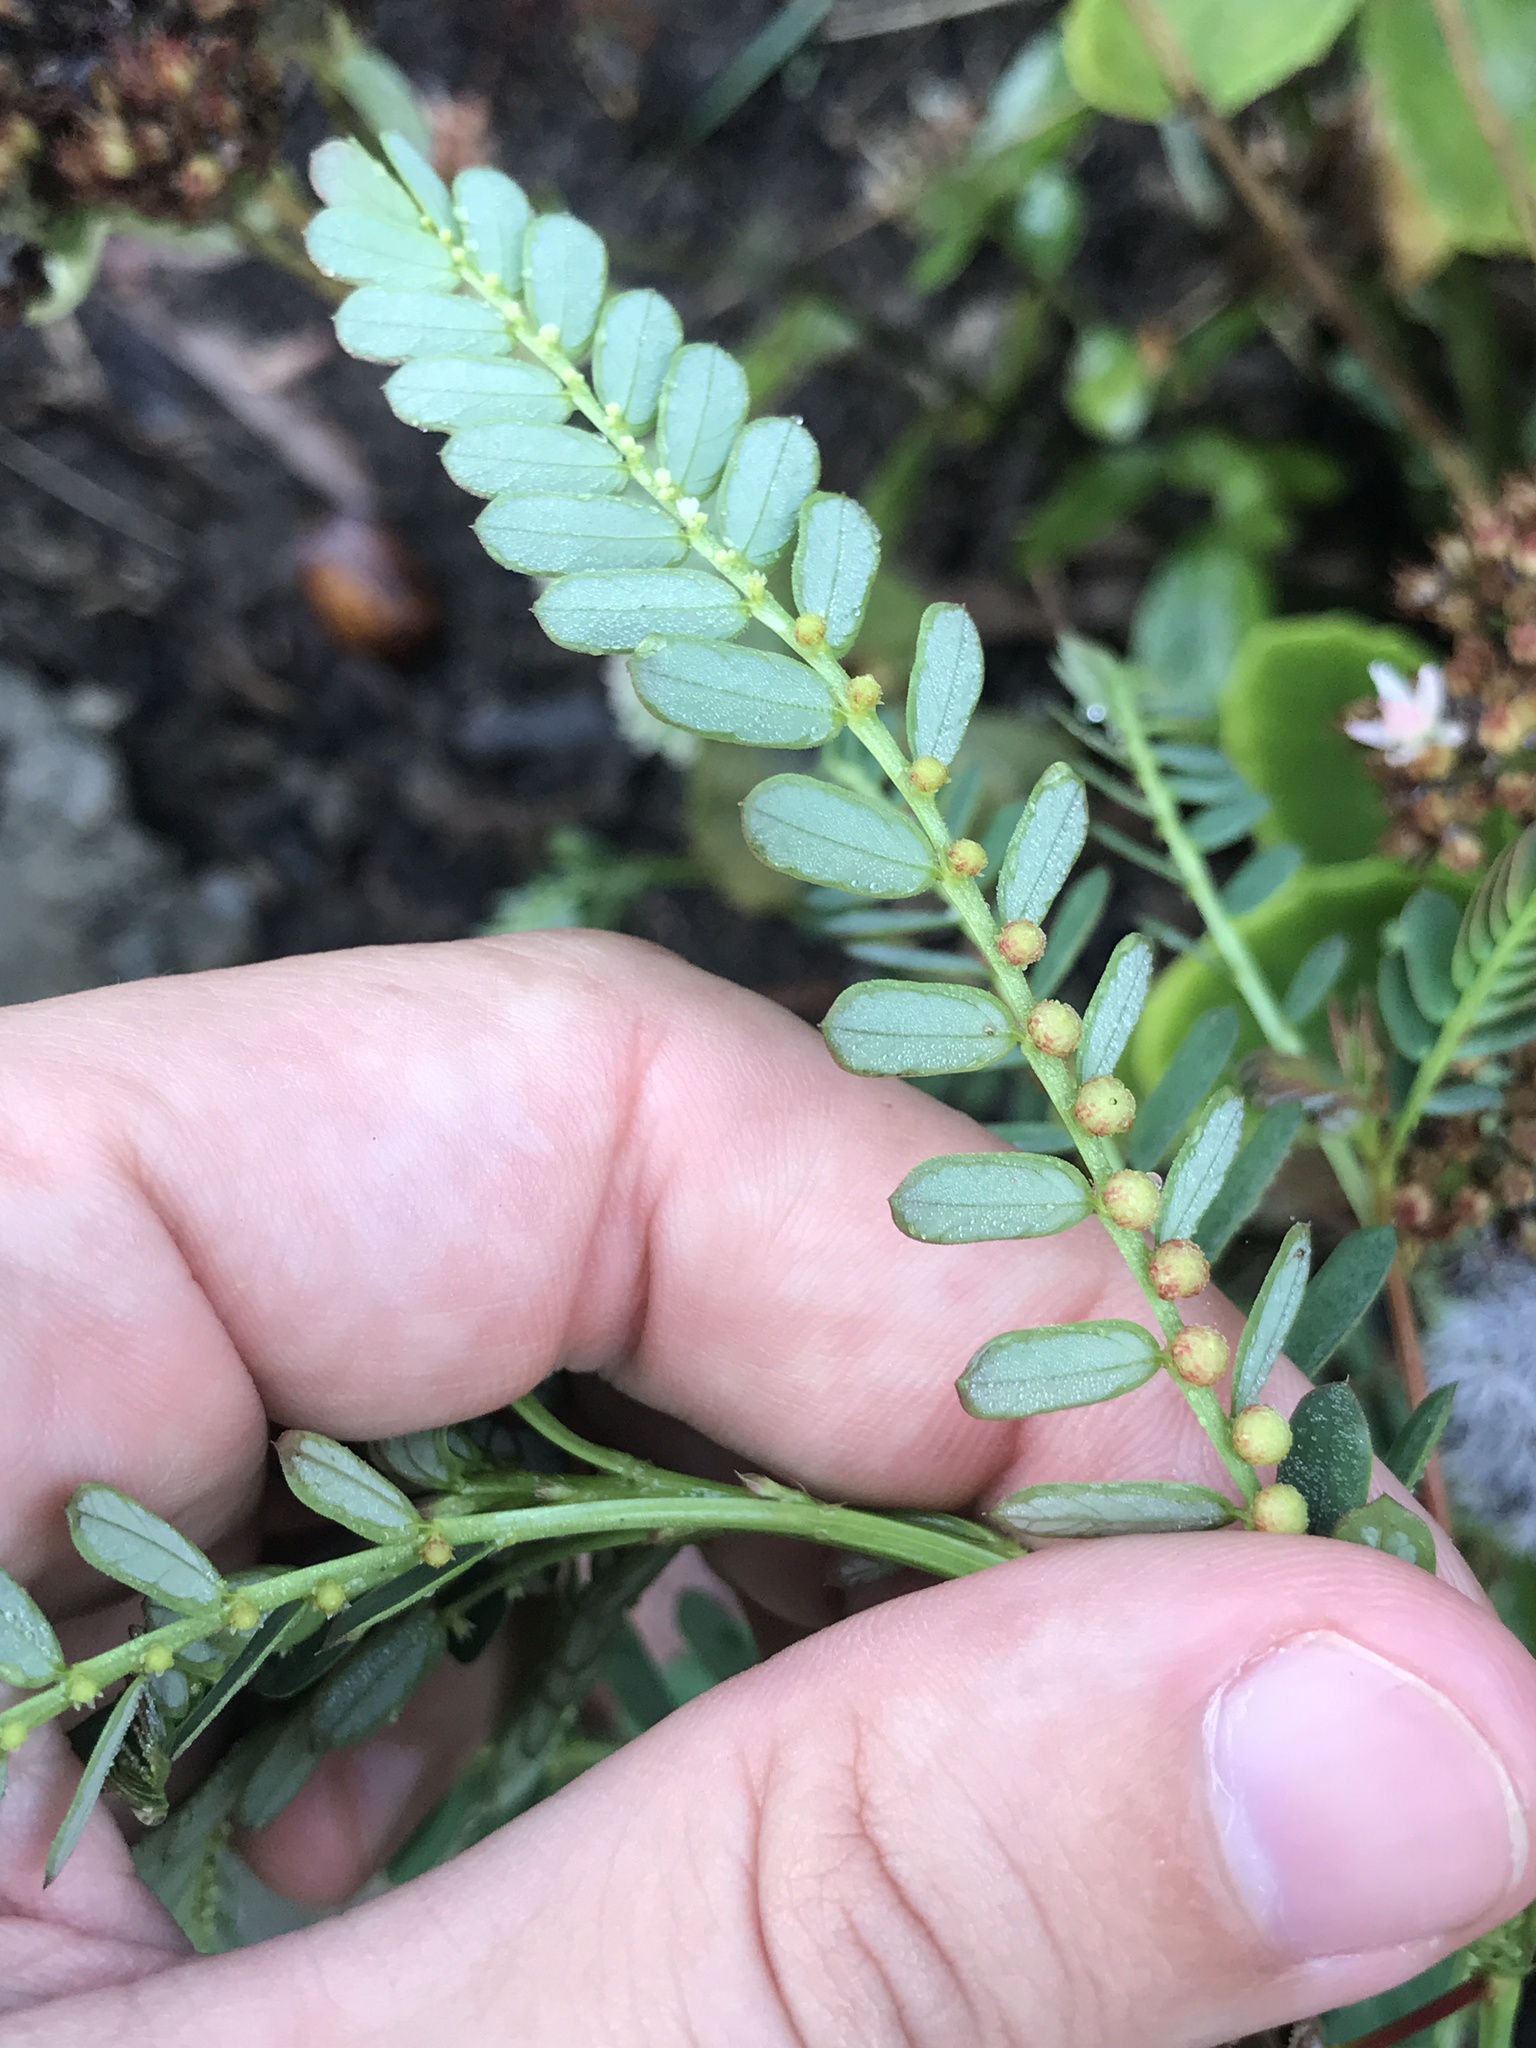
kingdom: Plantae
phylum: Tracheophyta
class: Magnoliopsida
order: Malpighiales
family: Phyllanthaceae
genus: Phyllanthus
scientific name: Phyllanthus urinaria
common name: Chamber bitter
